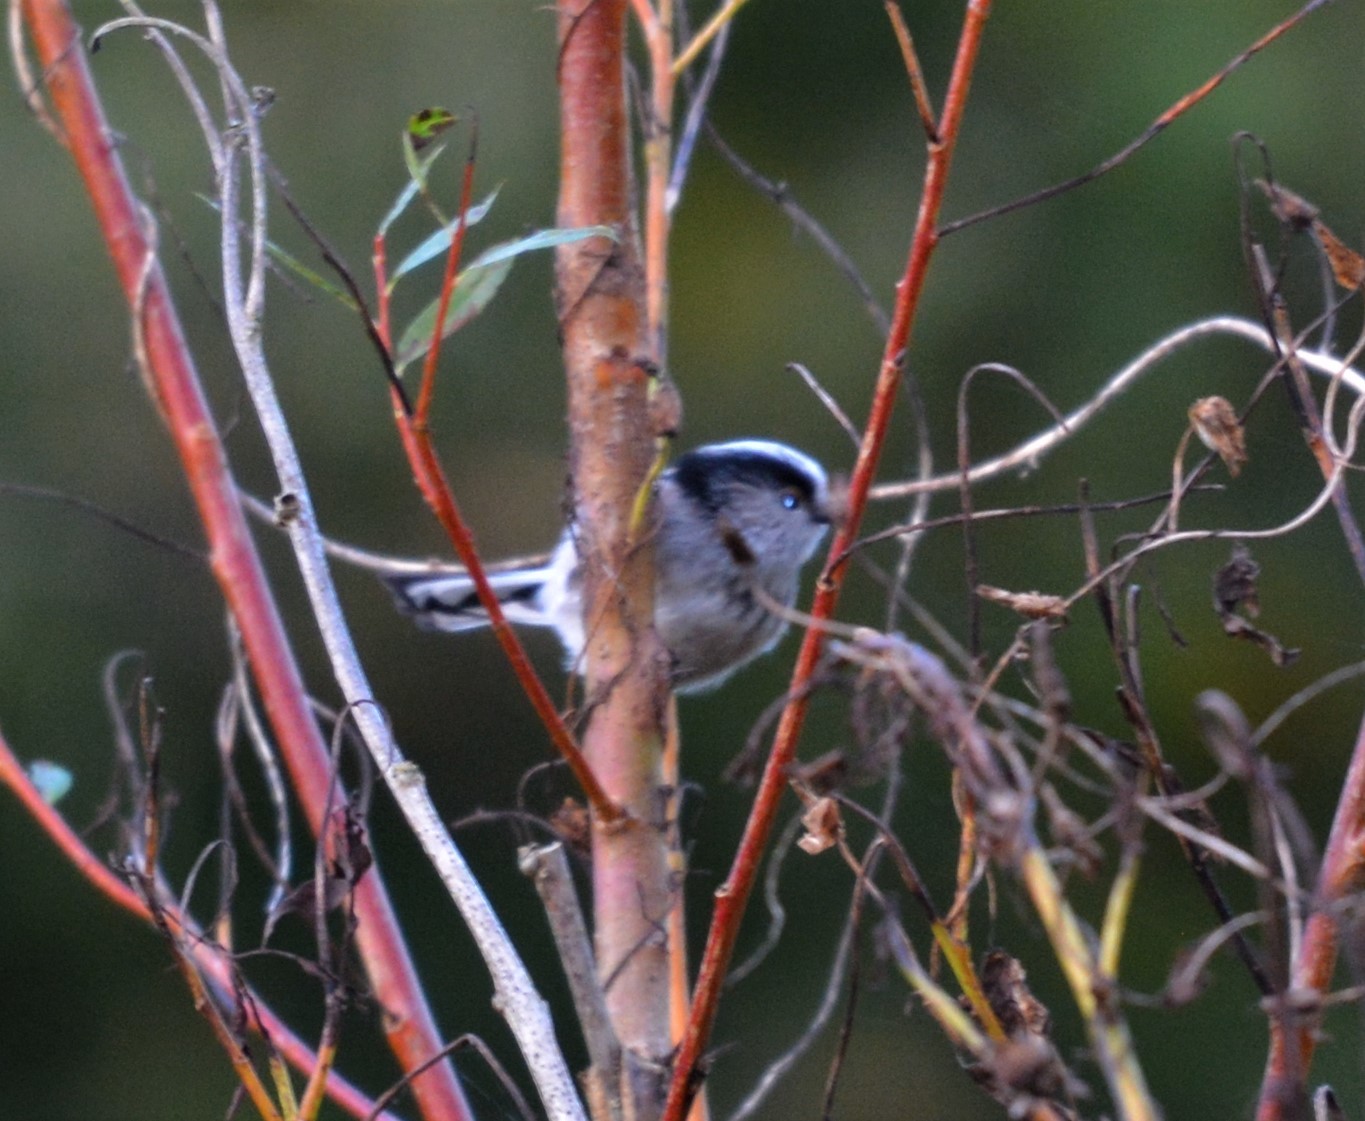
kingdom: Animalia
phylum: Chordata
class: Aves
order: Passeriformes
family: Aegithalidae
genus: Aegithalos
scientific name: Aegithalos caudatus
